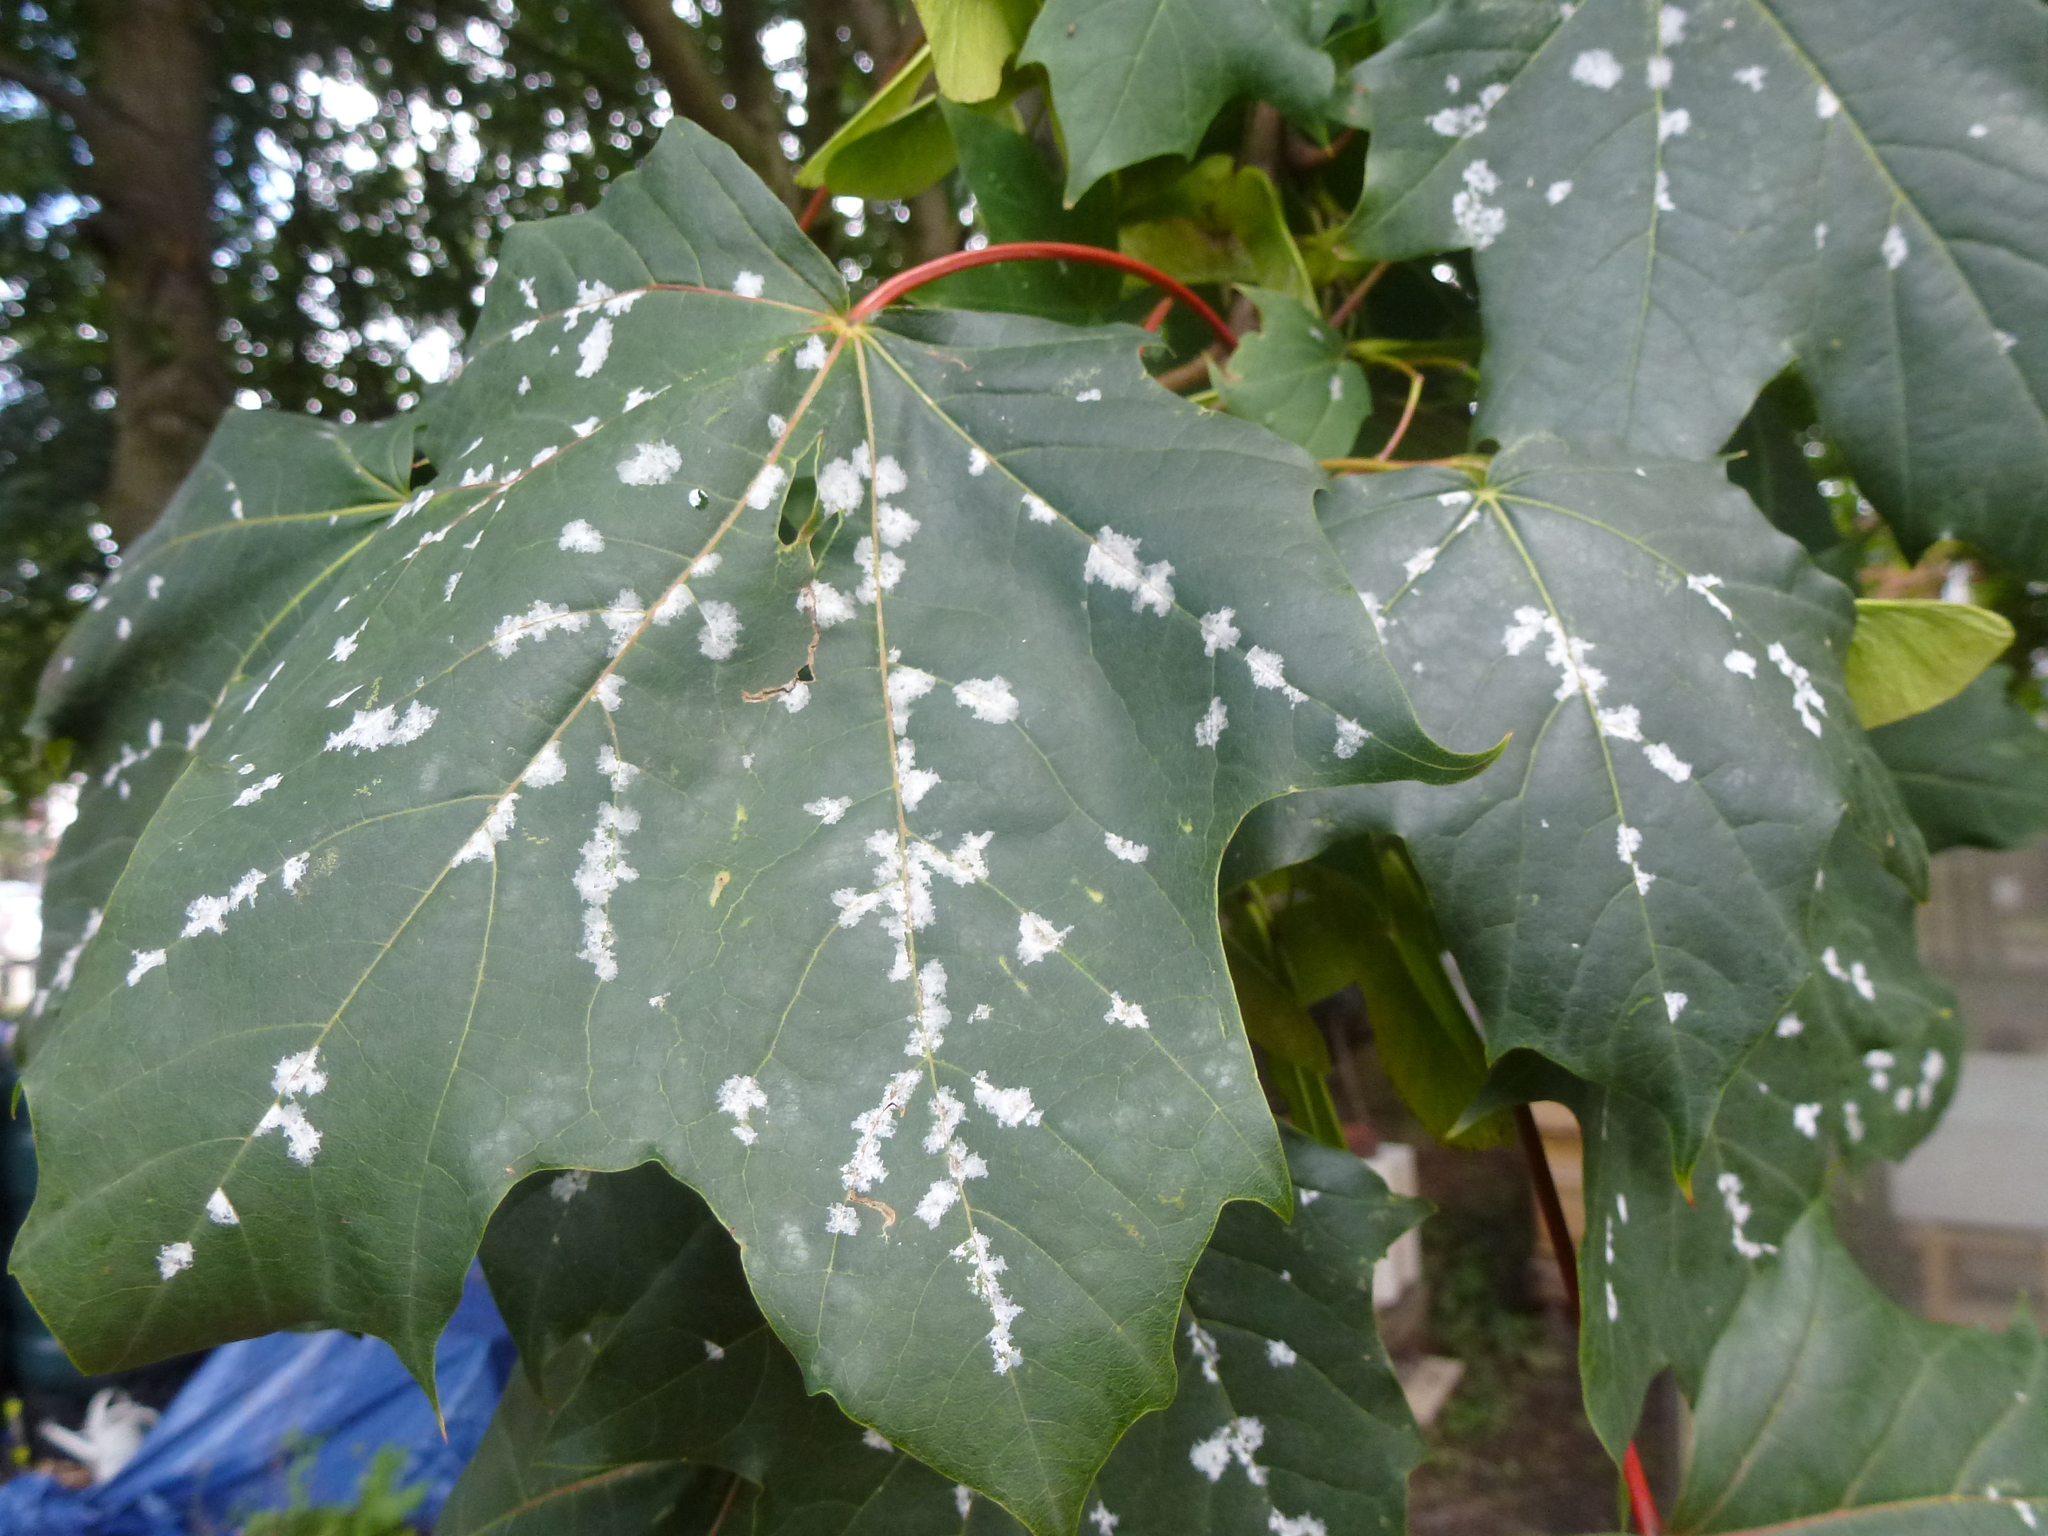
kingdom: Fungi
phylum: Ascomycota
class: Leotiomycetes
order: Helotiales
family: Erysiphaceae
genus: Sawadaea
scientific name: Sawadaea tulasnei
